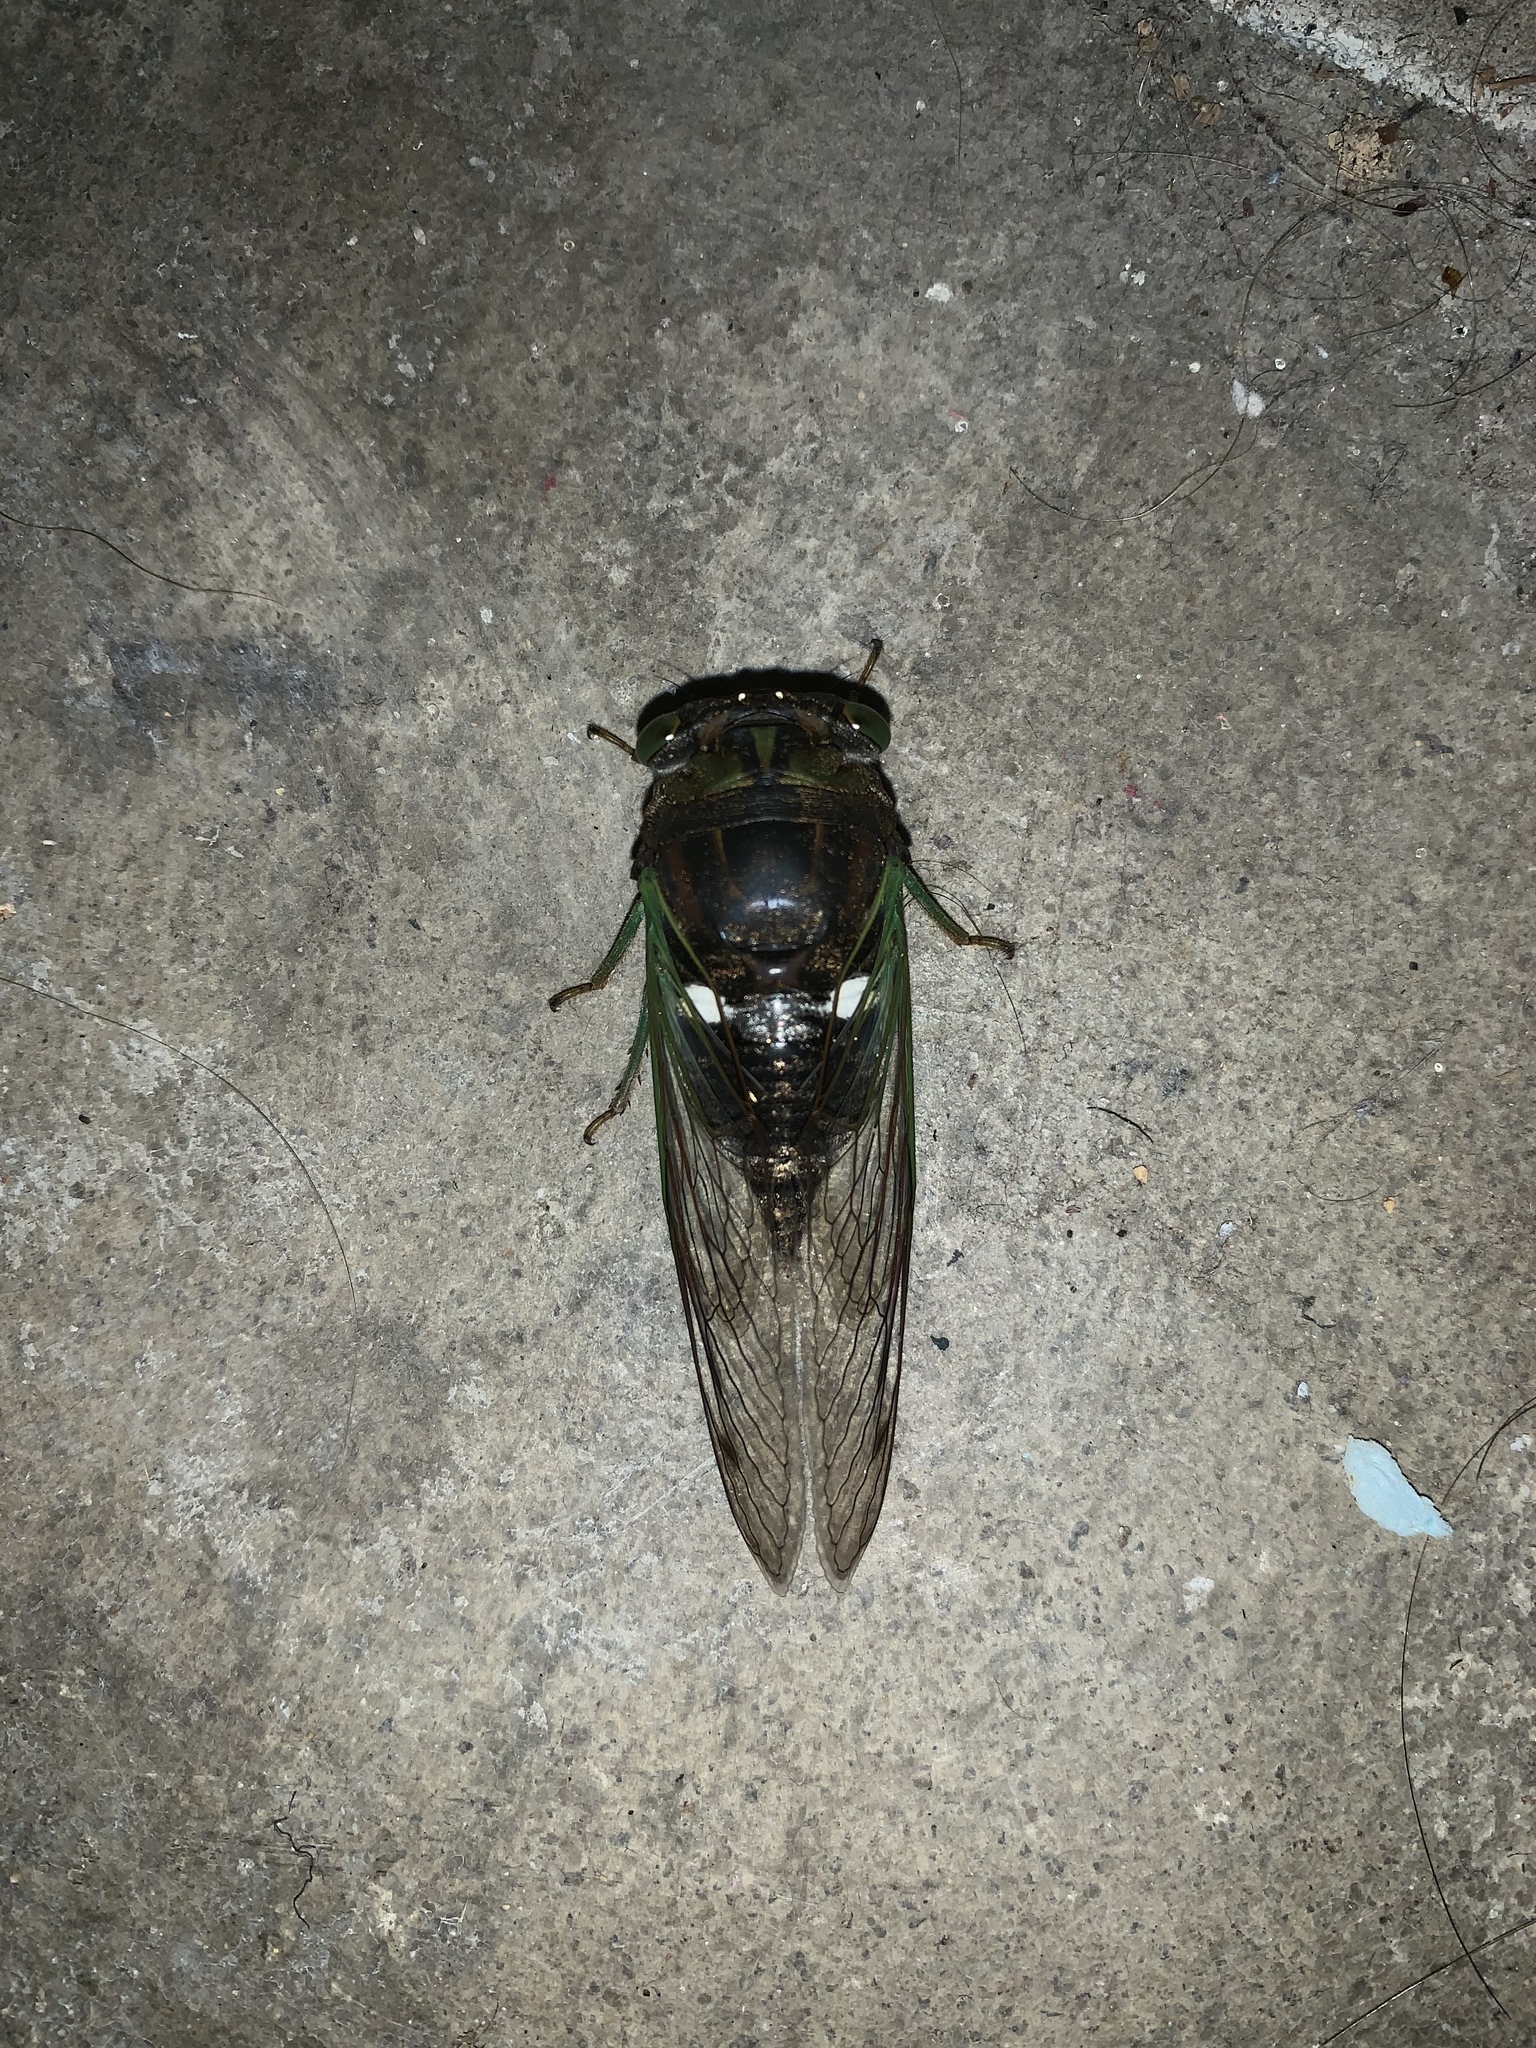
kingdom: Animalia
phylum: Arthropoda
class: Insecta
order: Hemiptera
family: Cicadidae
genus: Neotibicen
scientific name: Neotibicen tibicen
